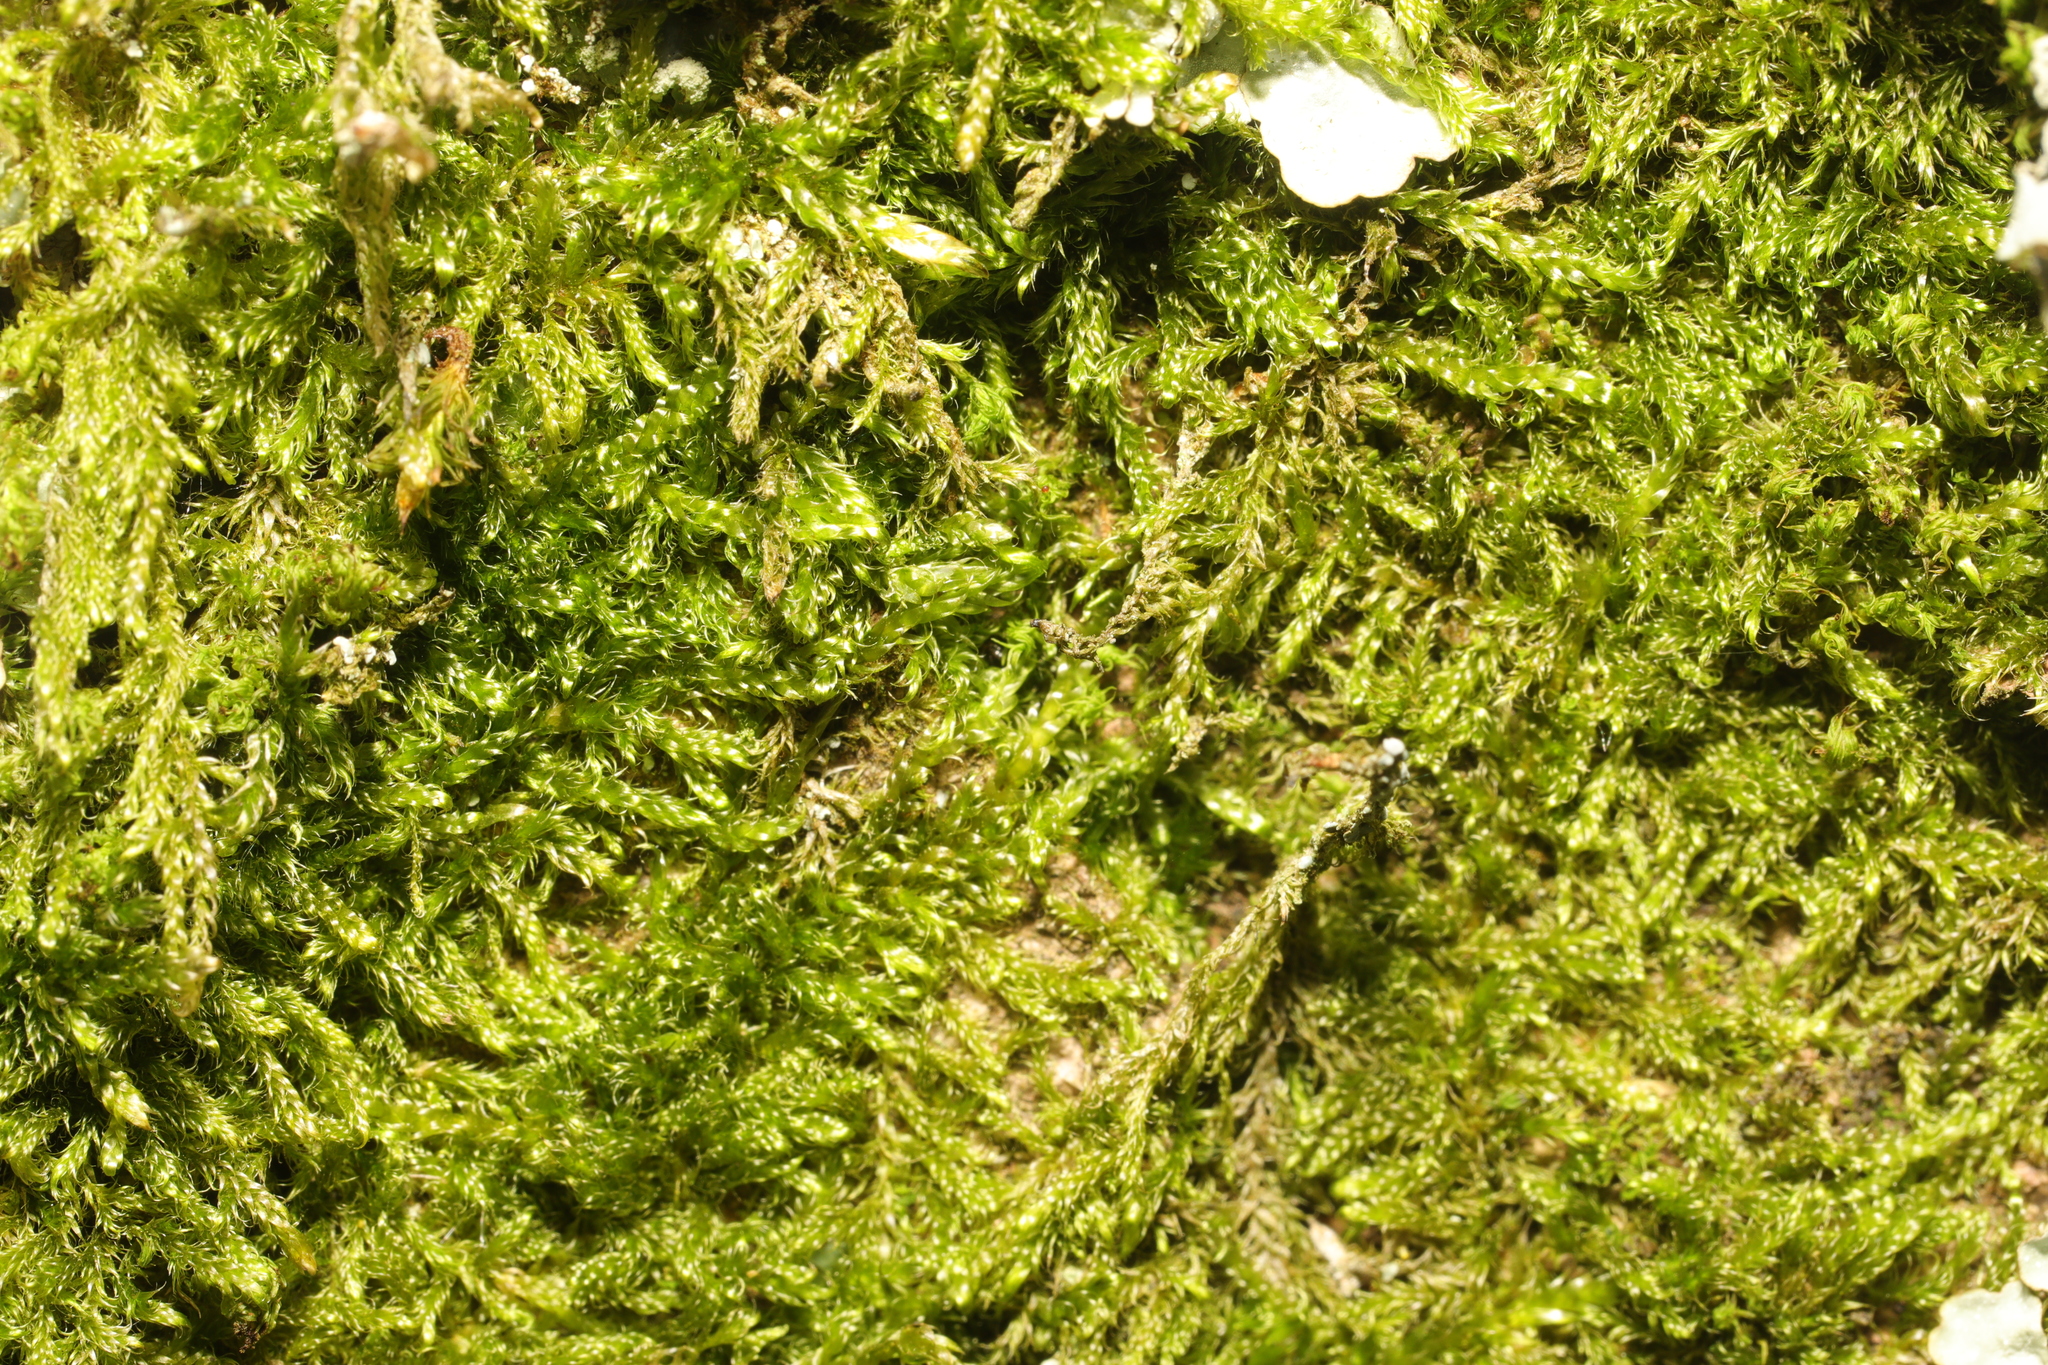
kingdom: Plantae
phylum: Bryophyta
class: Bryopsida
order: Hypnales
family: Hypnaceae
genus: Hypnum
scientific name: Hypnum cupressiforme
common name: Cypress-leaved plait-moss
